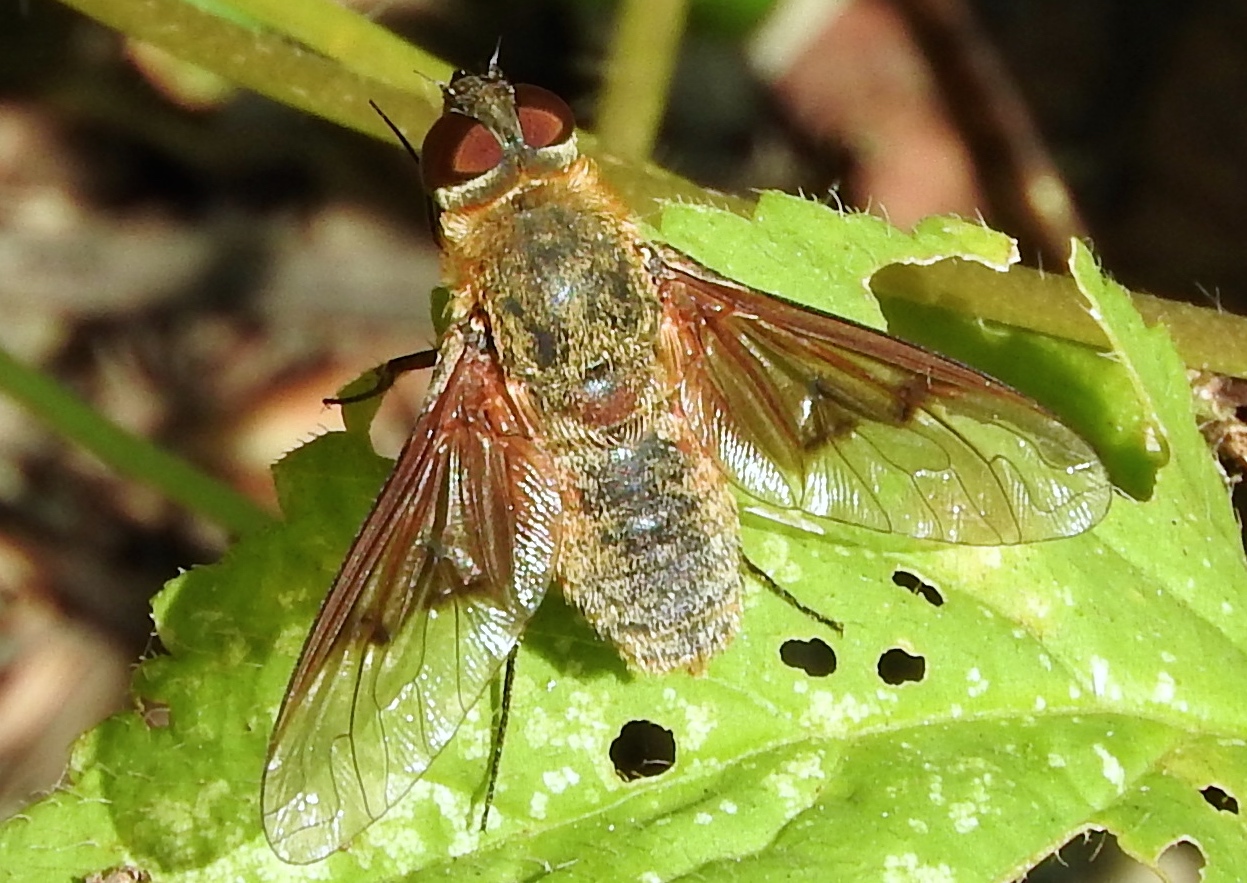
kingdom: Animalia
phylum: Arthropoda
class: Insecta
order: Diptera
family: Bombyliidae
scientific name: Bombyliidae
